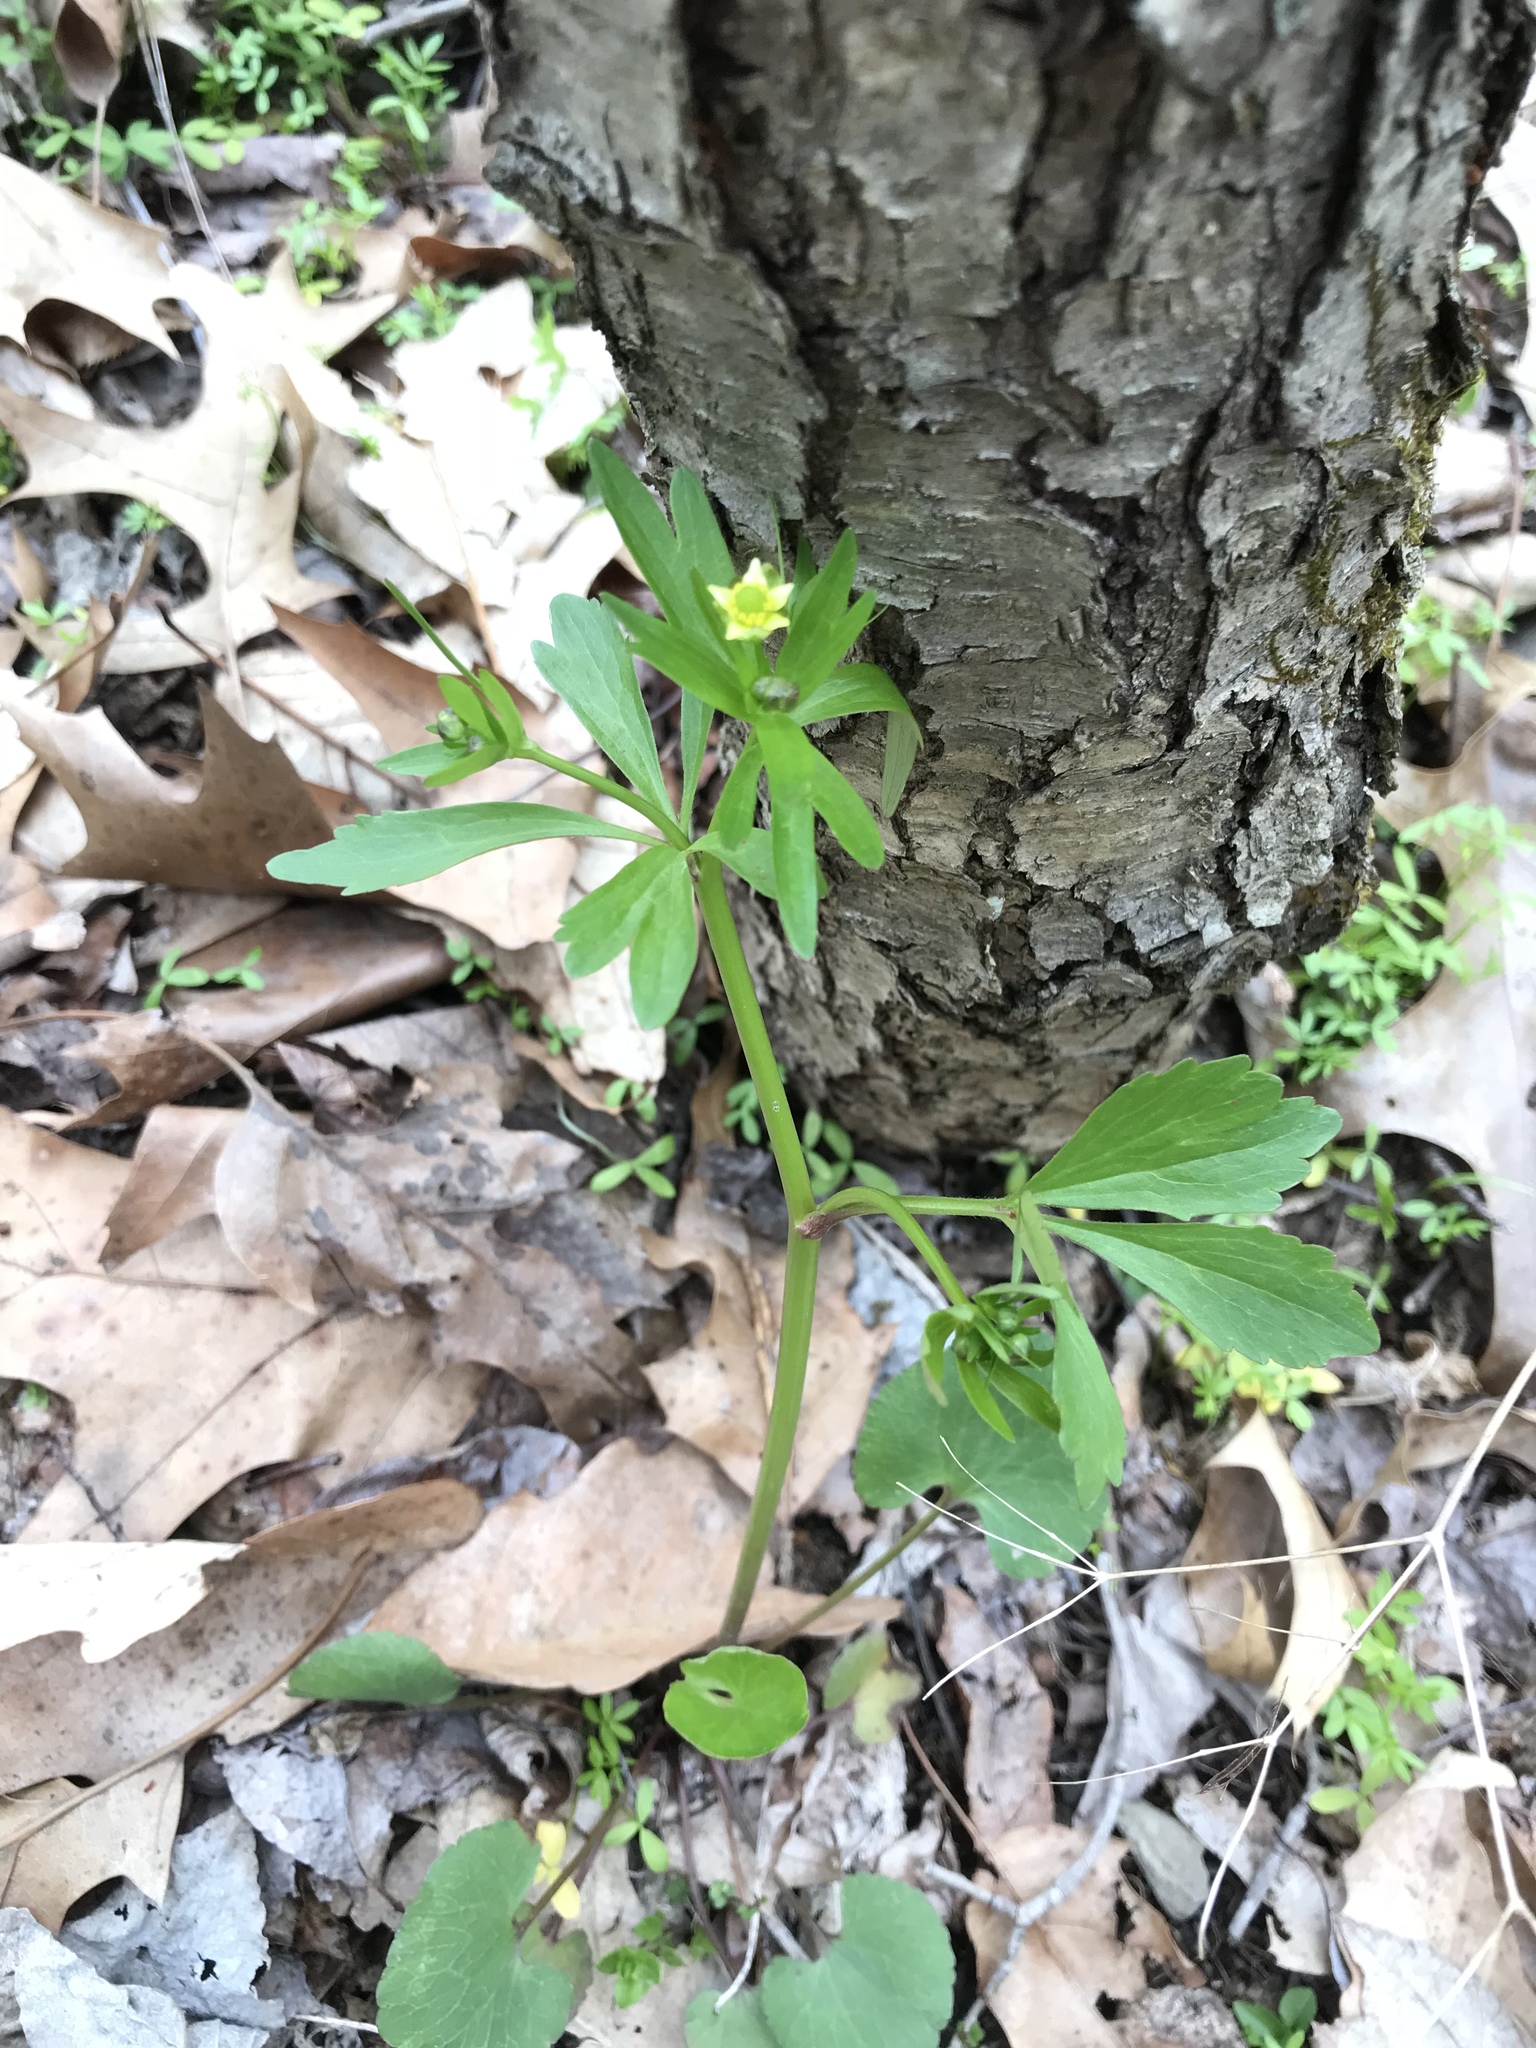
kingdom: Plantae
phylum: Tracheophyta
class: Magnoliopsida
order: Ranunculales
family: Ranunculaceae
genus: Ranunculus
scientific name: Ranunculus abortivus
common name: Early wood buttercup
